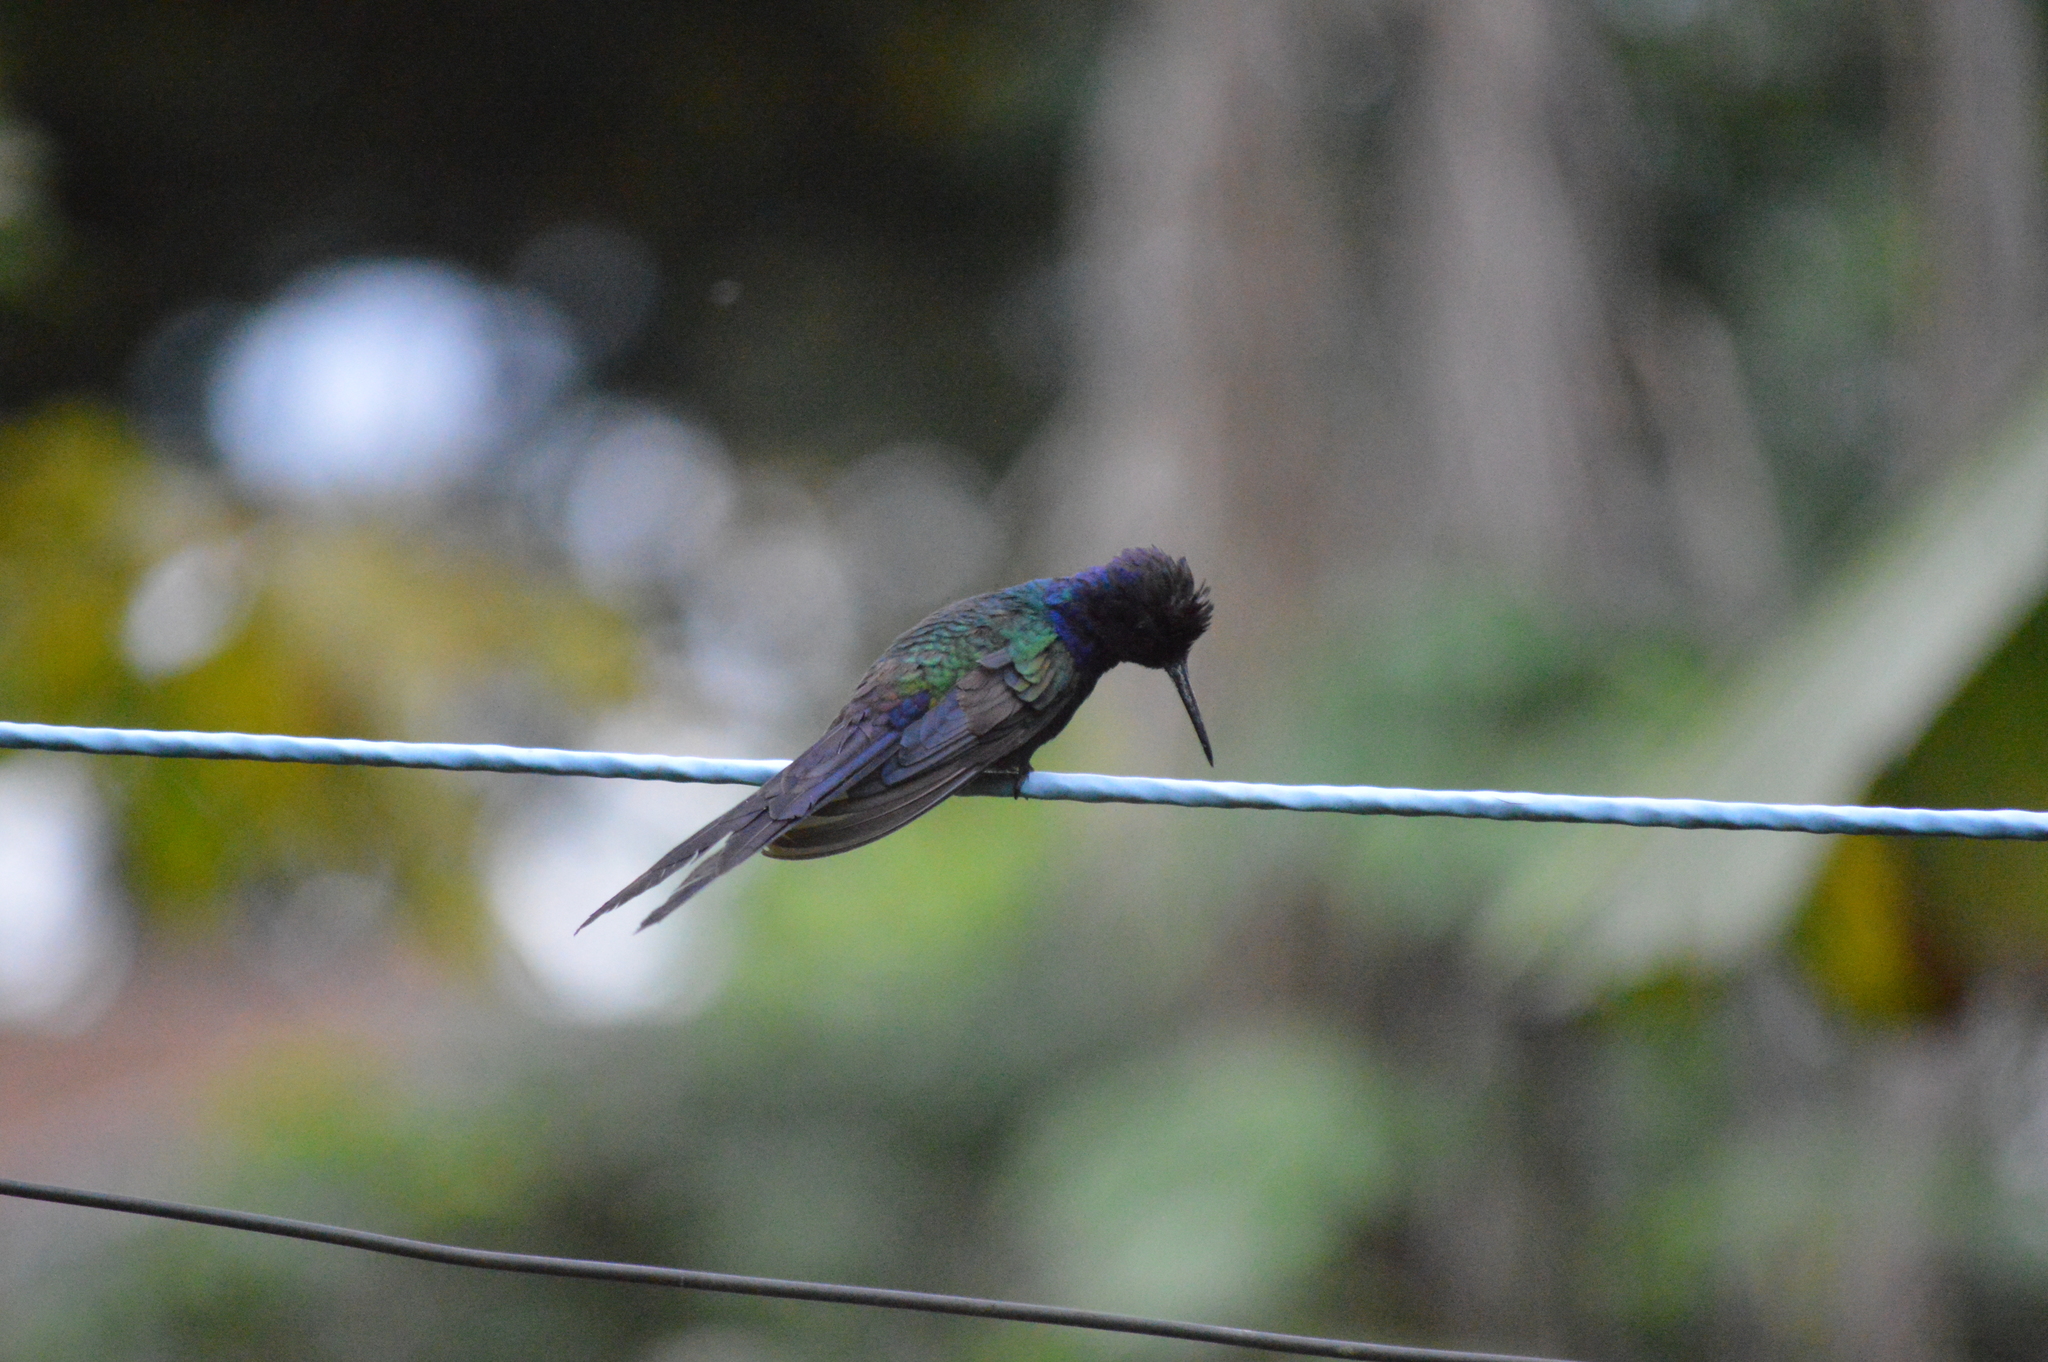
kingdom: Animalia
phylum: Chordata
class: Aves
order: Apodiformes
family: Trochilidae
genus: Eupetomena
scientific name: Eupetomena macroura
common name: Swallow-tailed hummingbird
